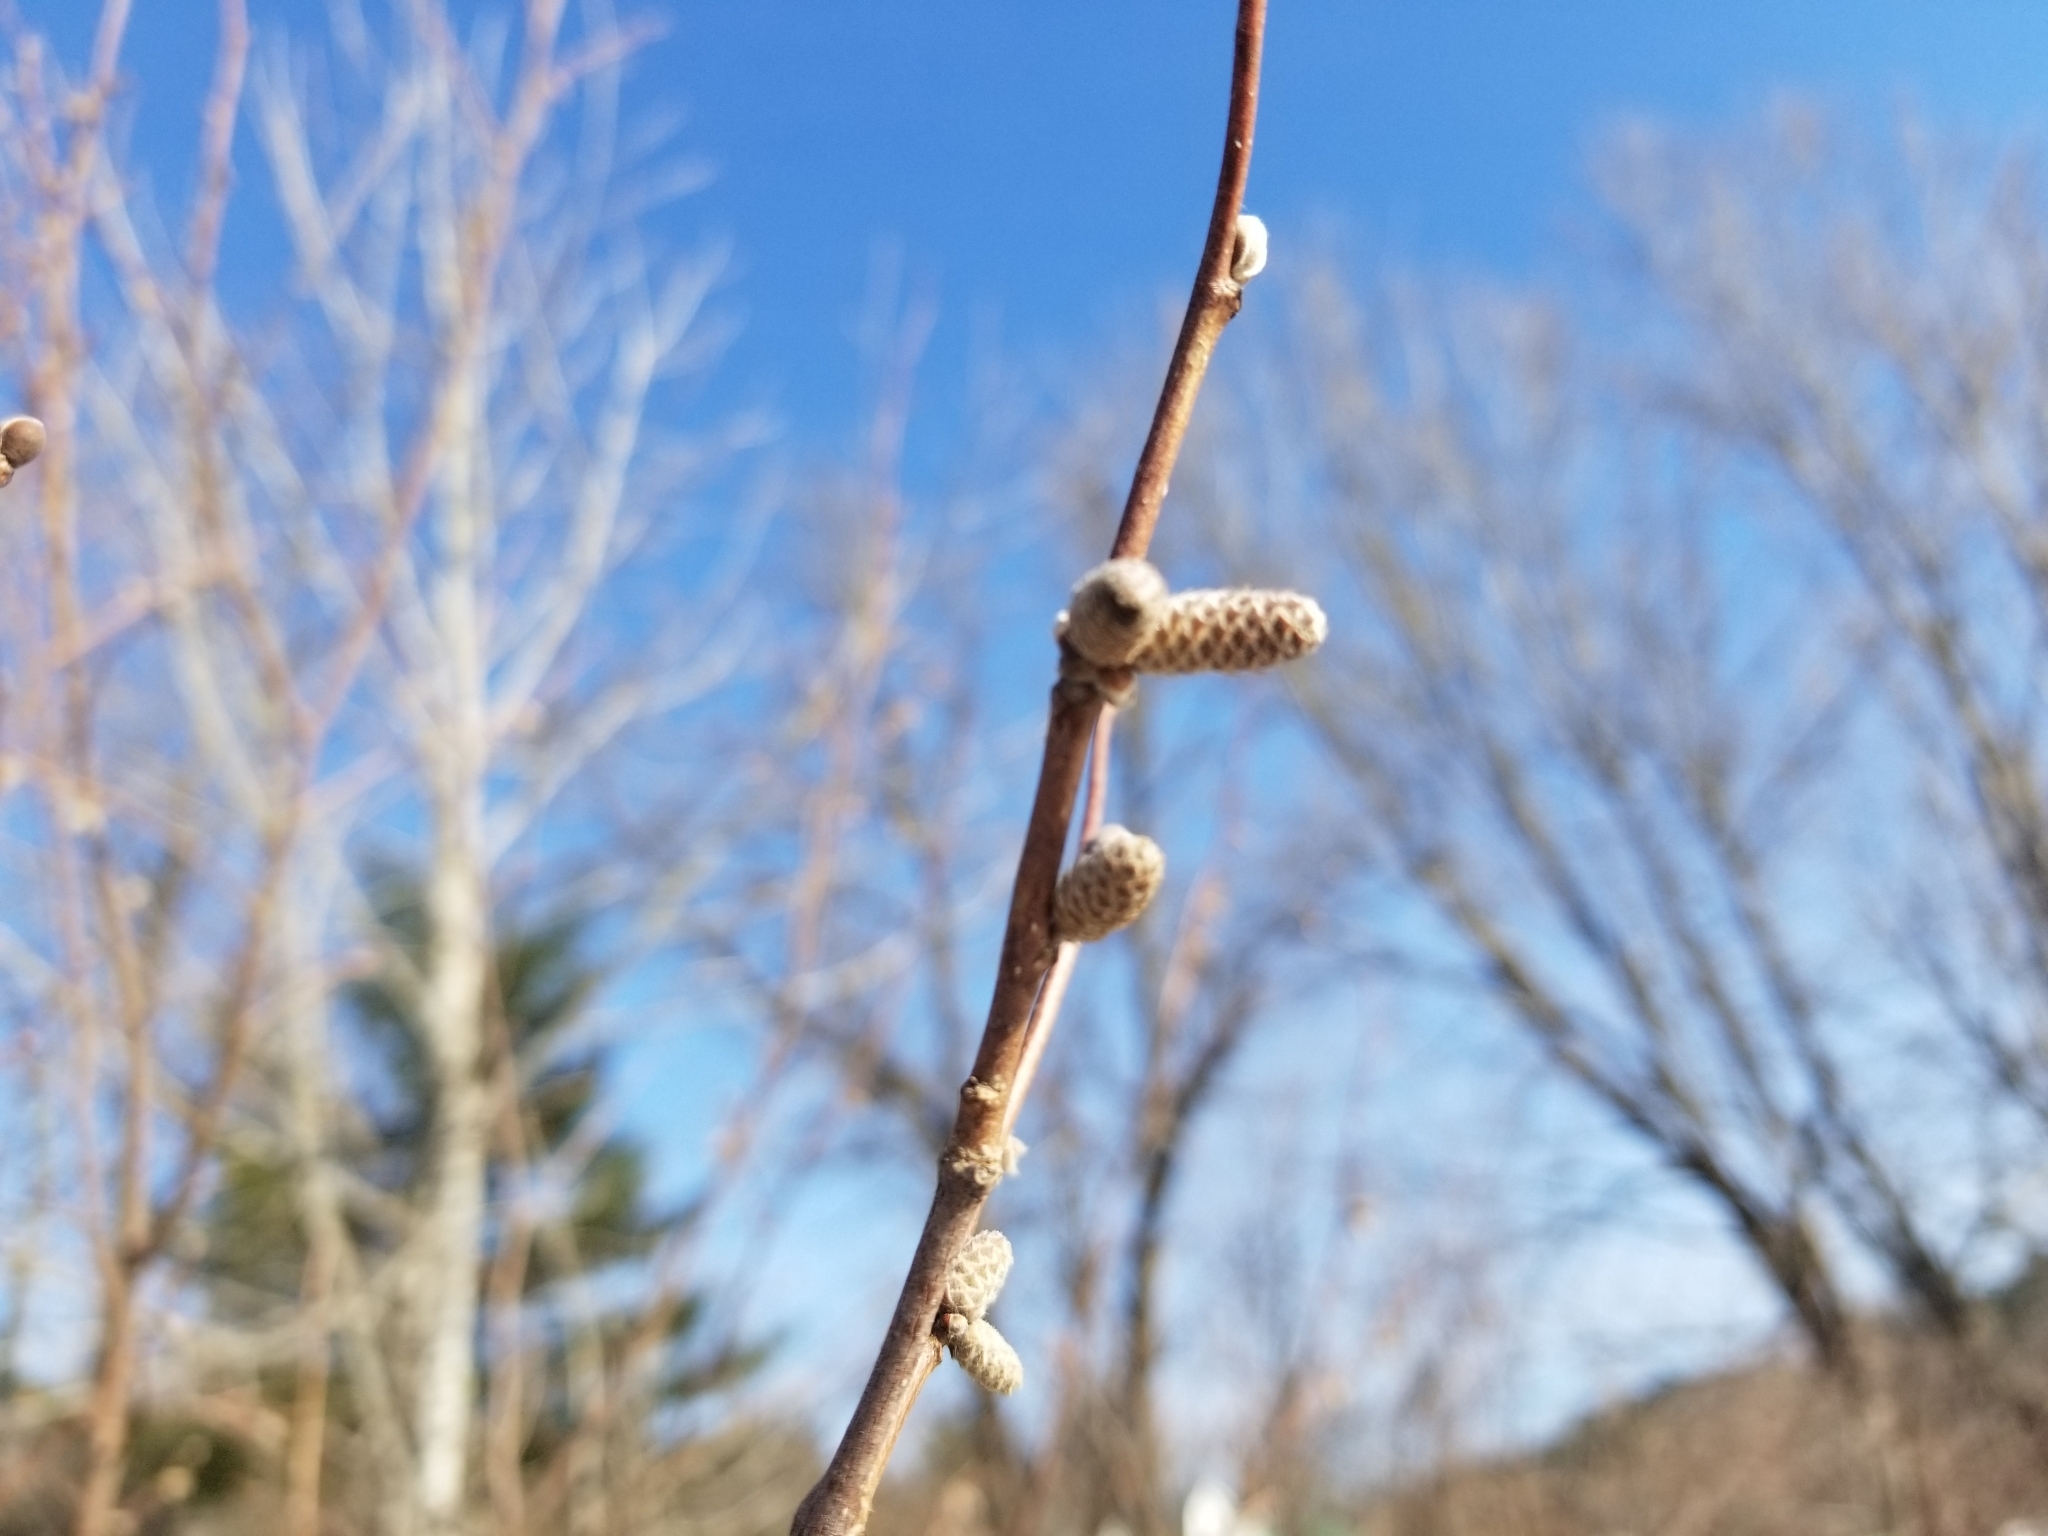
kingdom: Plantae
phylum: Tracheophyta
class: Magnoliopsida
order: Fagales
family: Betulaceae
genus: Corylus
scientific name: Corylus cornuta
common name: Beaked hazel
